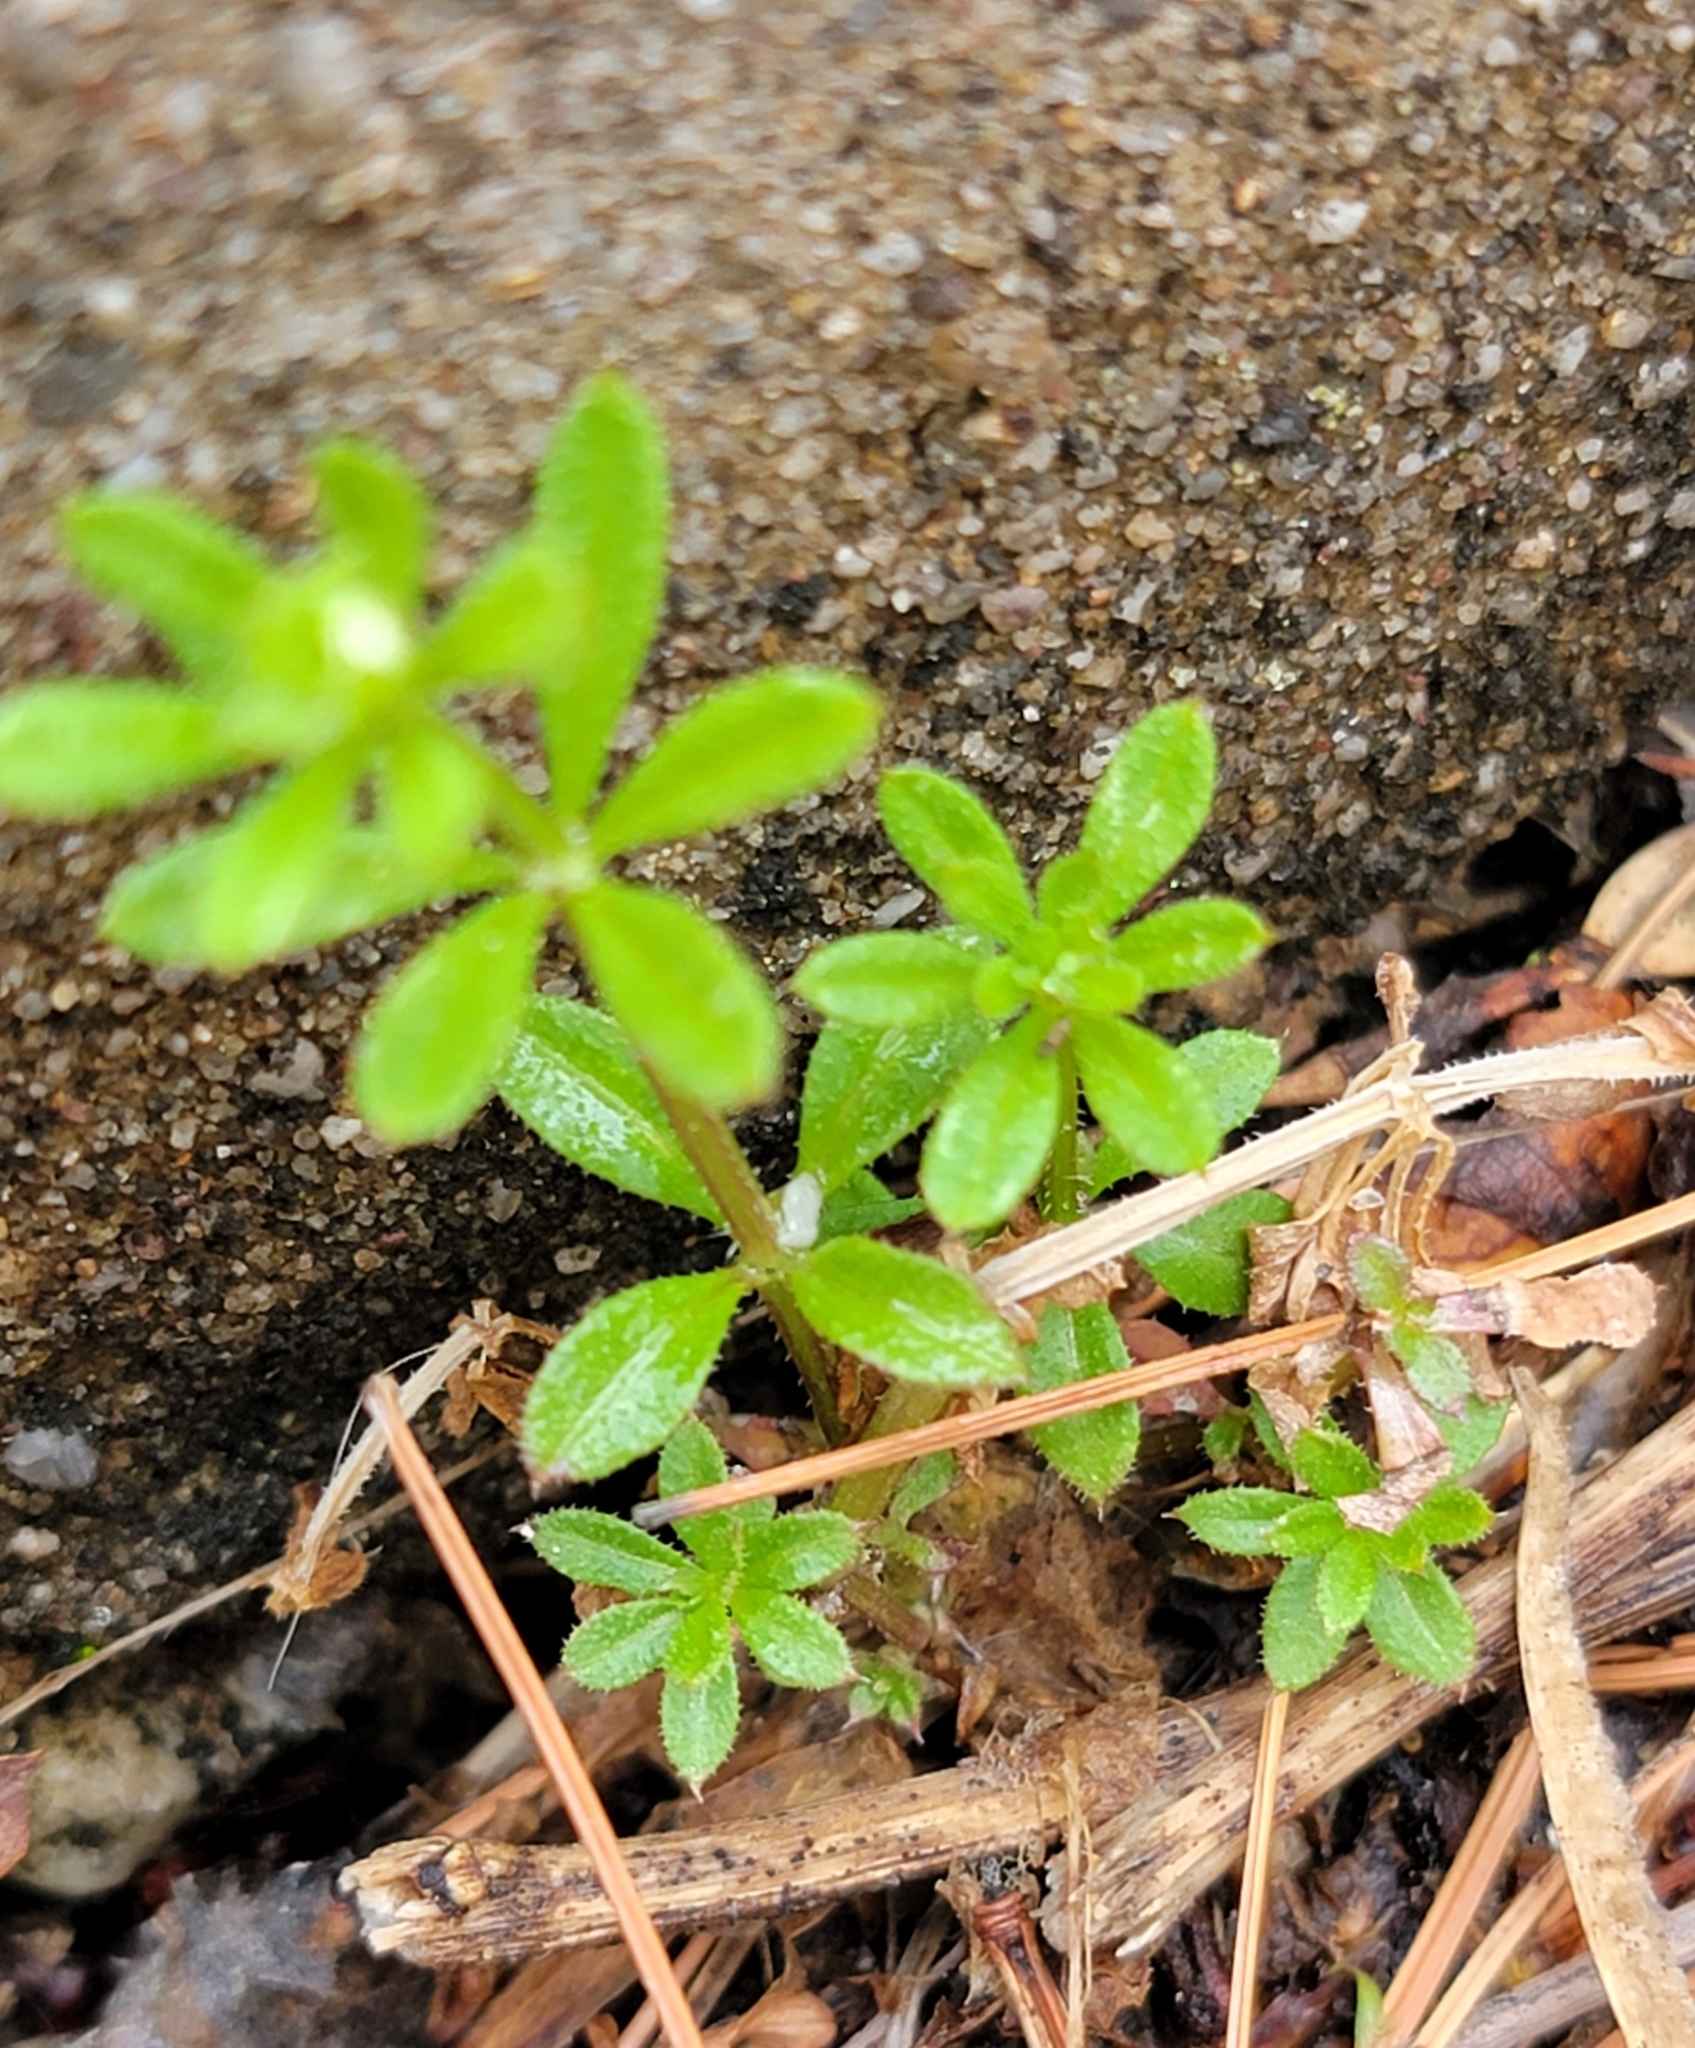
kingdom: Plantae
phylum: Tracheophyta
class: Magnoliopsida
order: Gentianales
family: Rubiaceae
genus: Galium
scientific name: Galium aparine
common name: Cleavers
